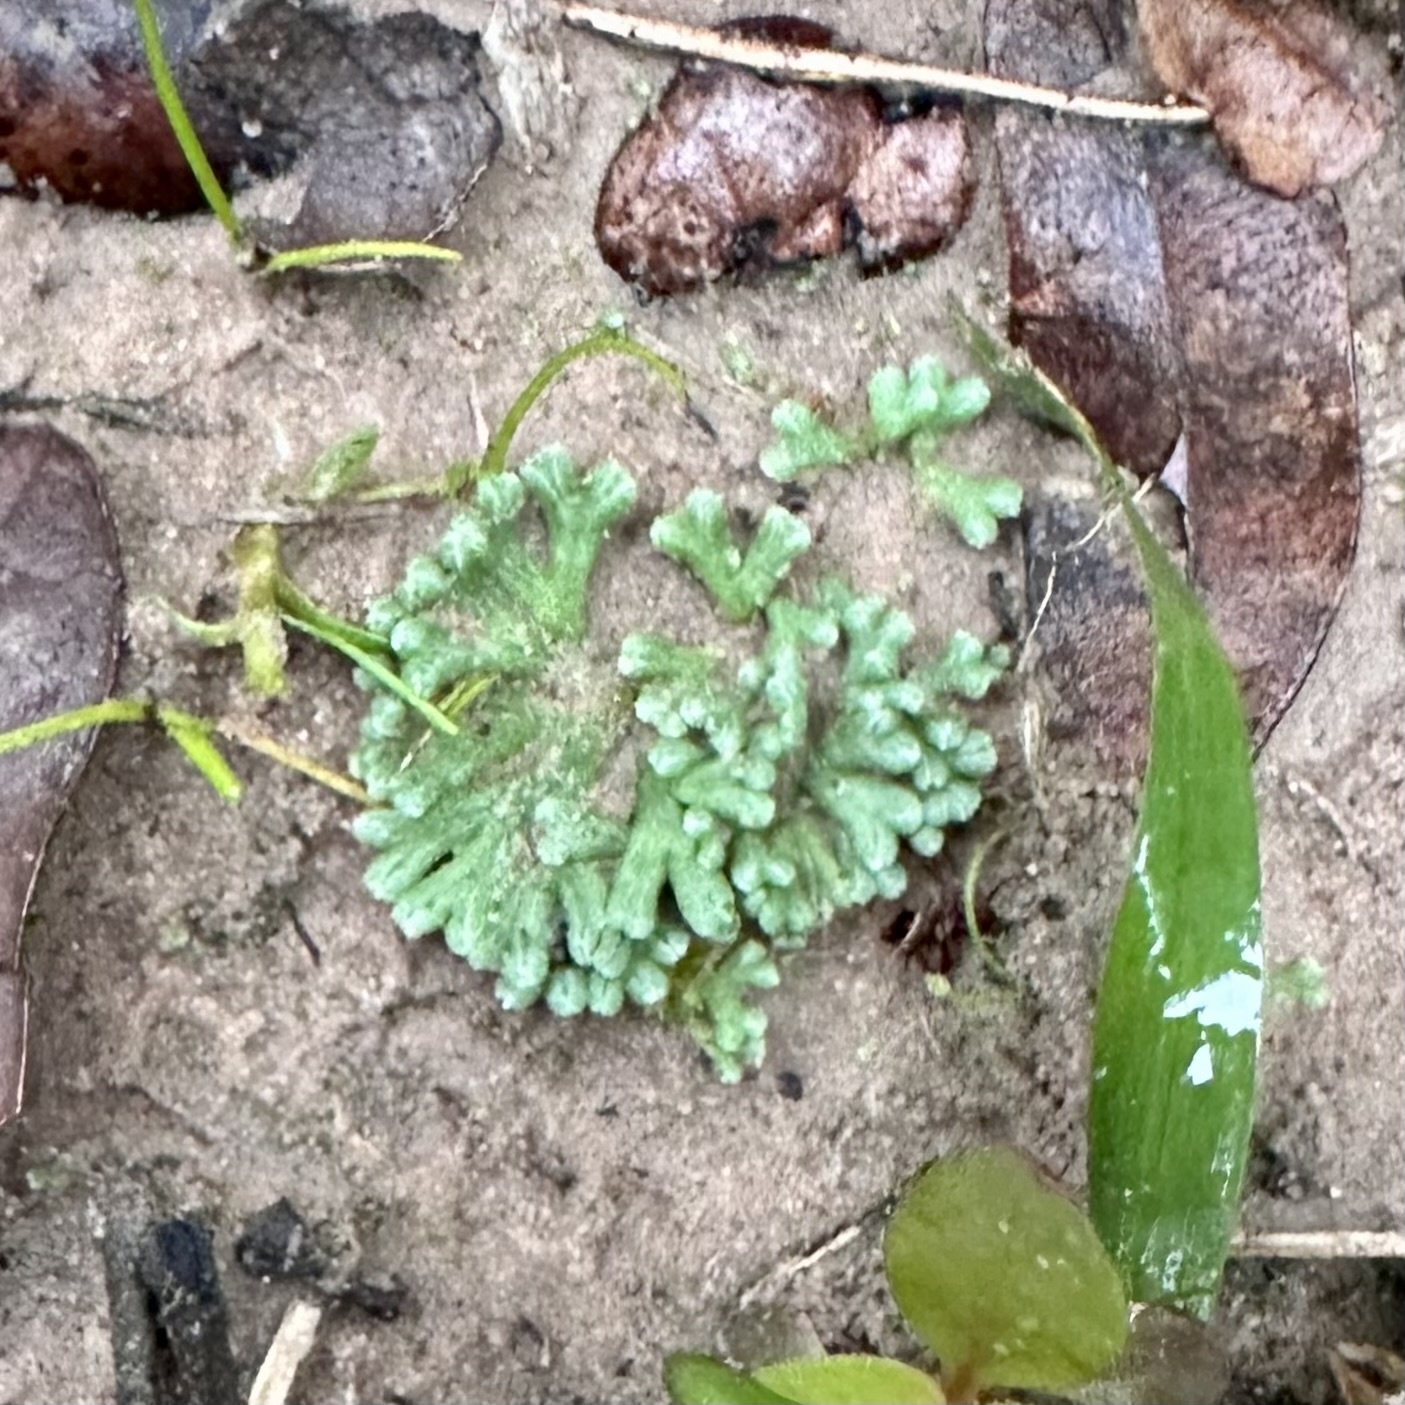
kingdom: Plantae
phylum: Marchantiophyta
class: Marchantiopsida
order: Marchantiales
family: Ricciaceae
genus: Ricciocarpos
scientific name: Ricciocarpos natans
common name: Purple-fringed liverwort
